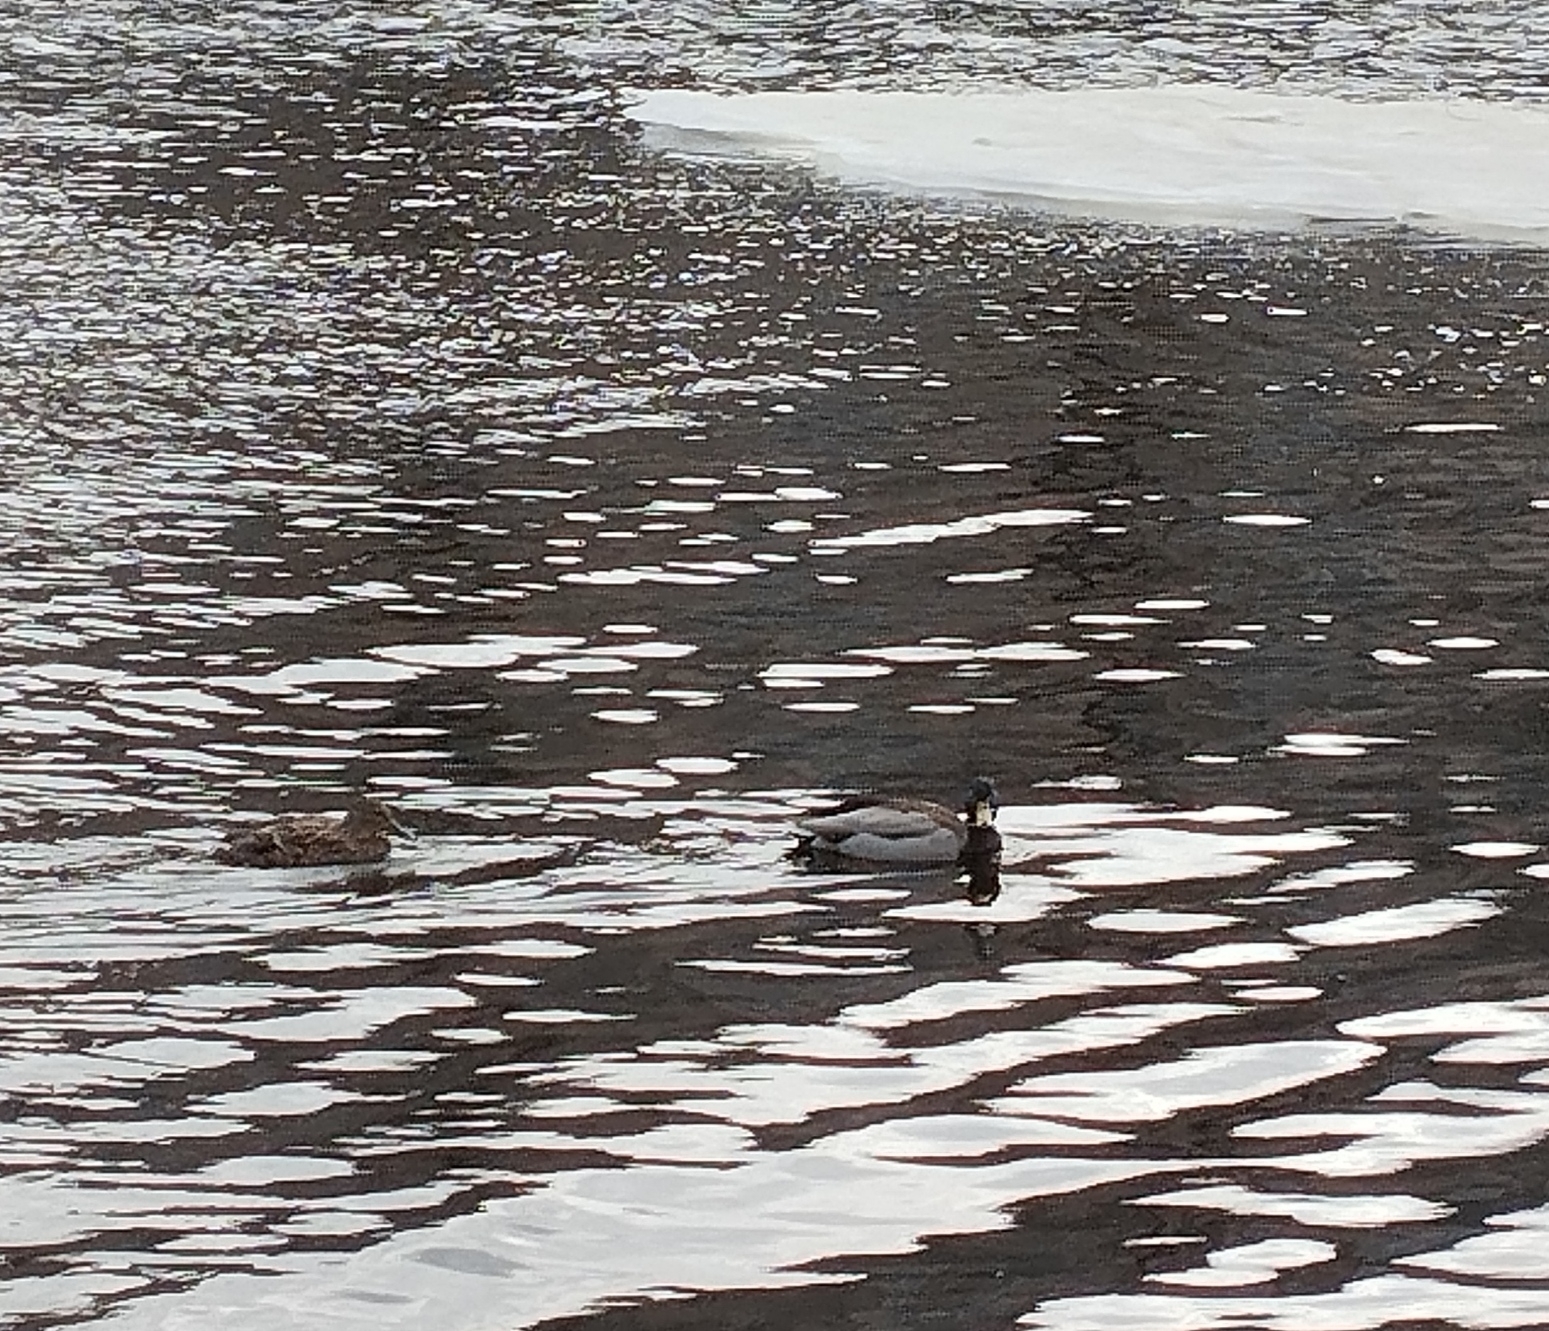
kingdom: Animalia
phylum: Chordata
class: Aves
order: Anseriformes
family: Anatidae
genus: Anas
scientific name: Anas platyrhynchos
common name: Mallard
